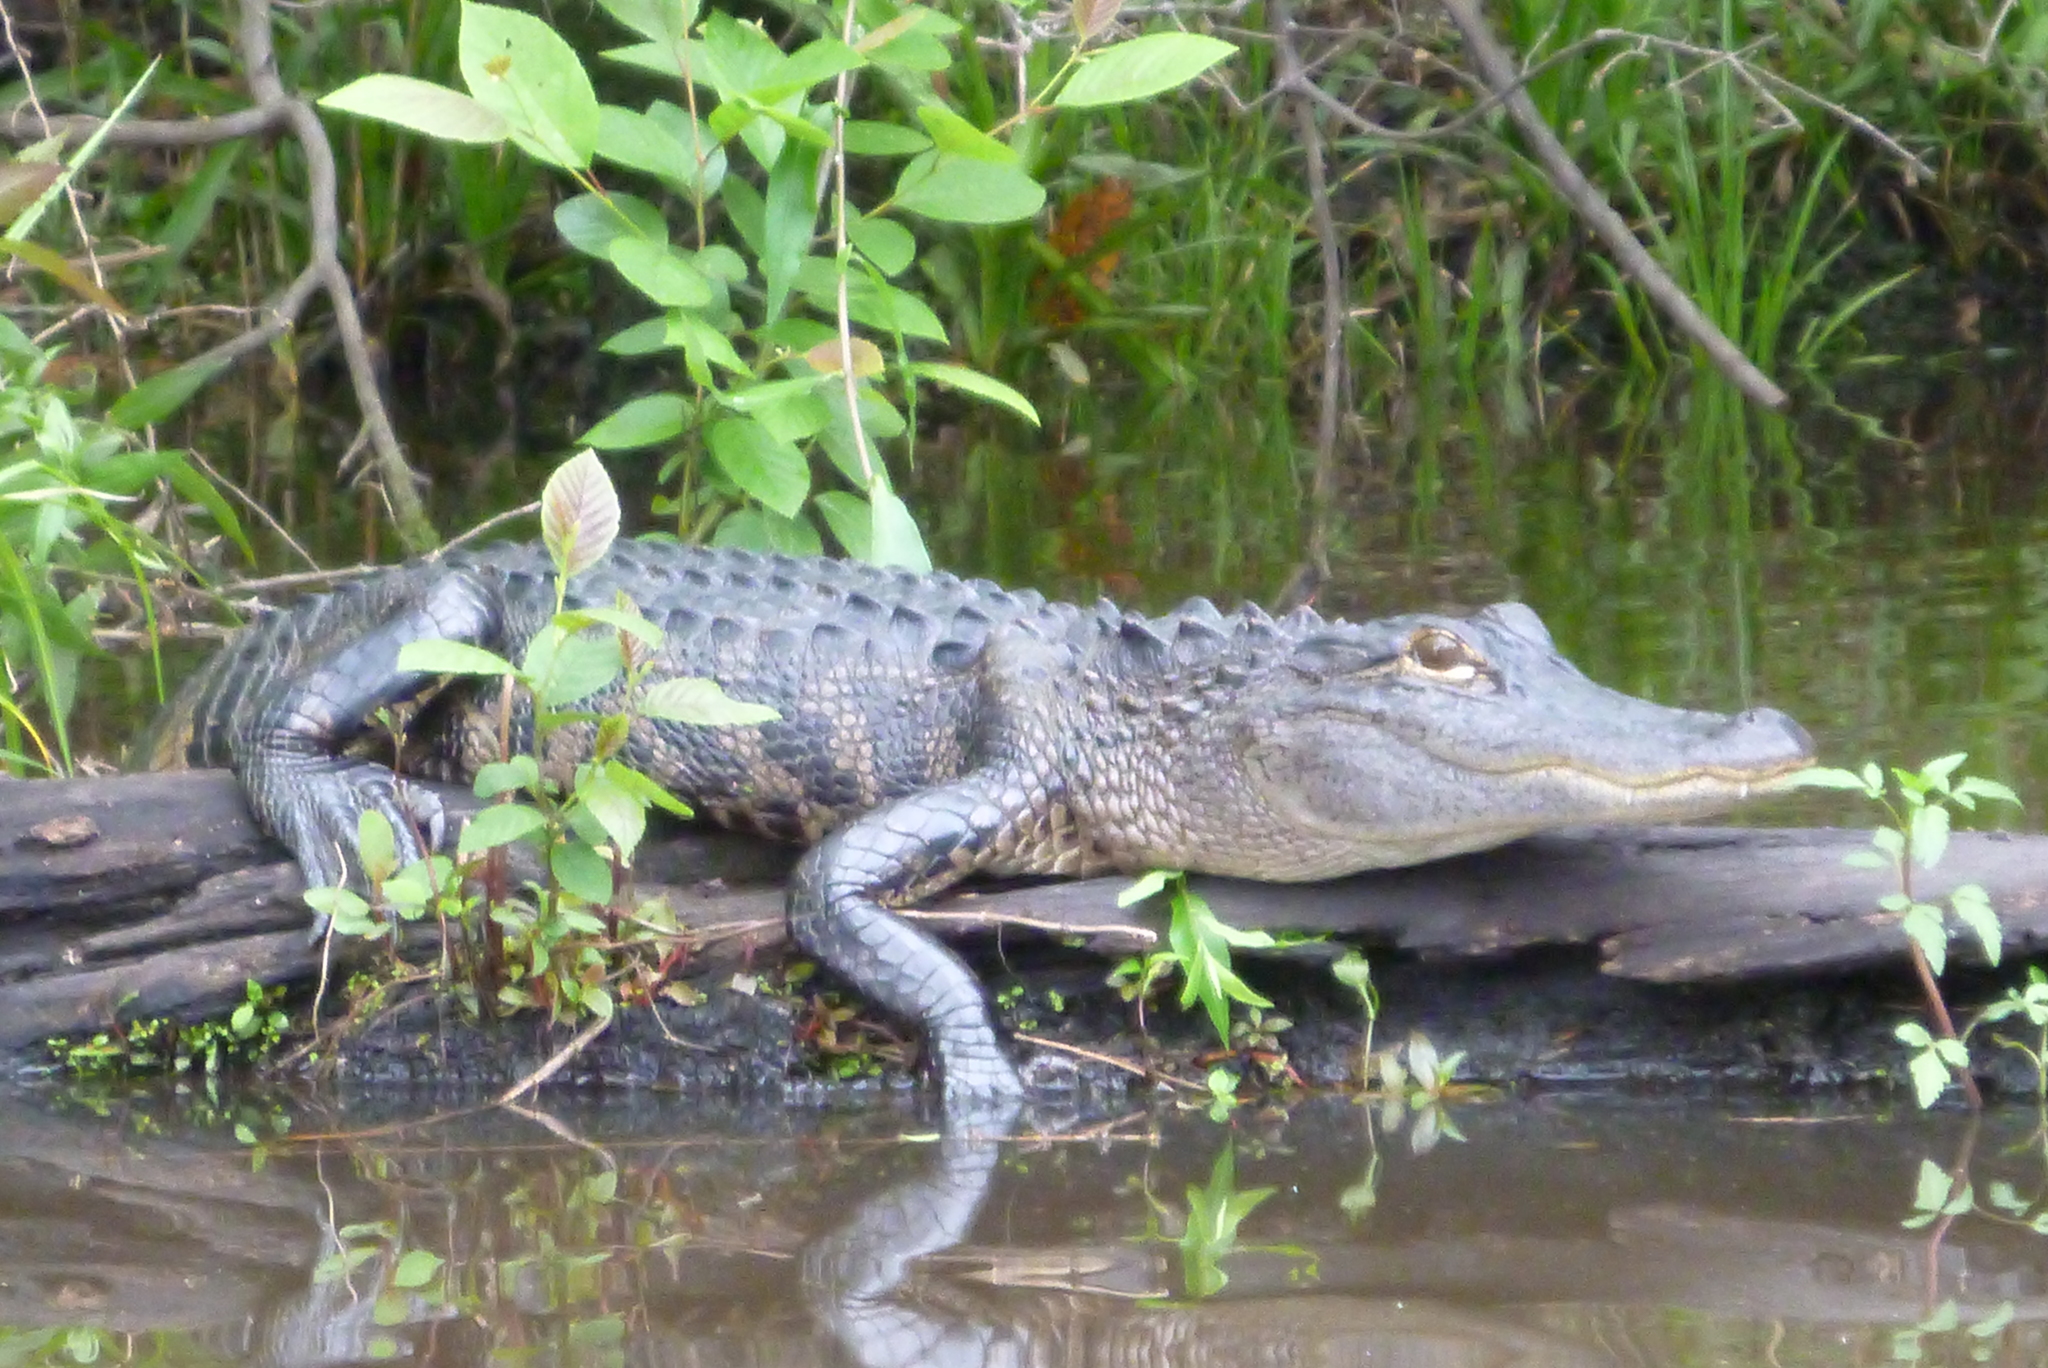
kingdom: Animalia
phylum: Chordata
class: Crocodylia
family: Alligatoridae
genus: Alligator
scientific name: Alligator mississippiensis
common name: American alligator
